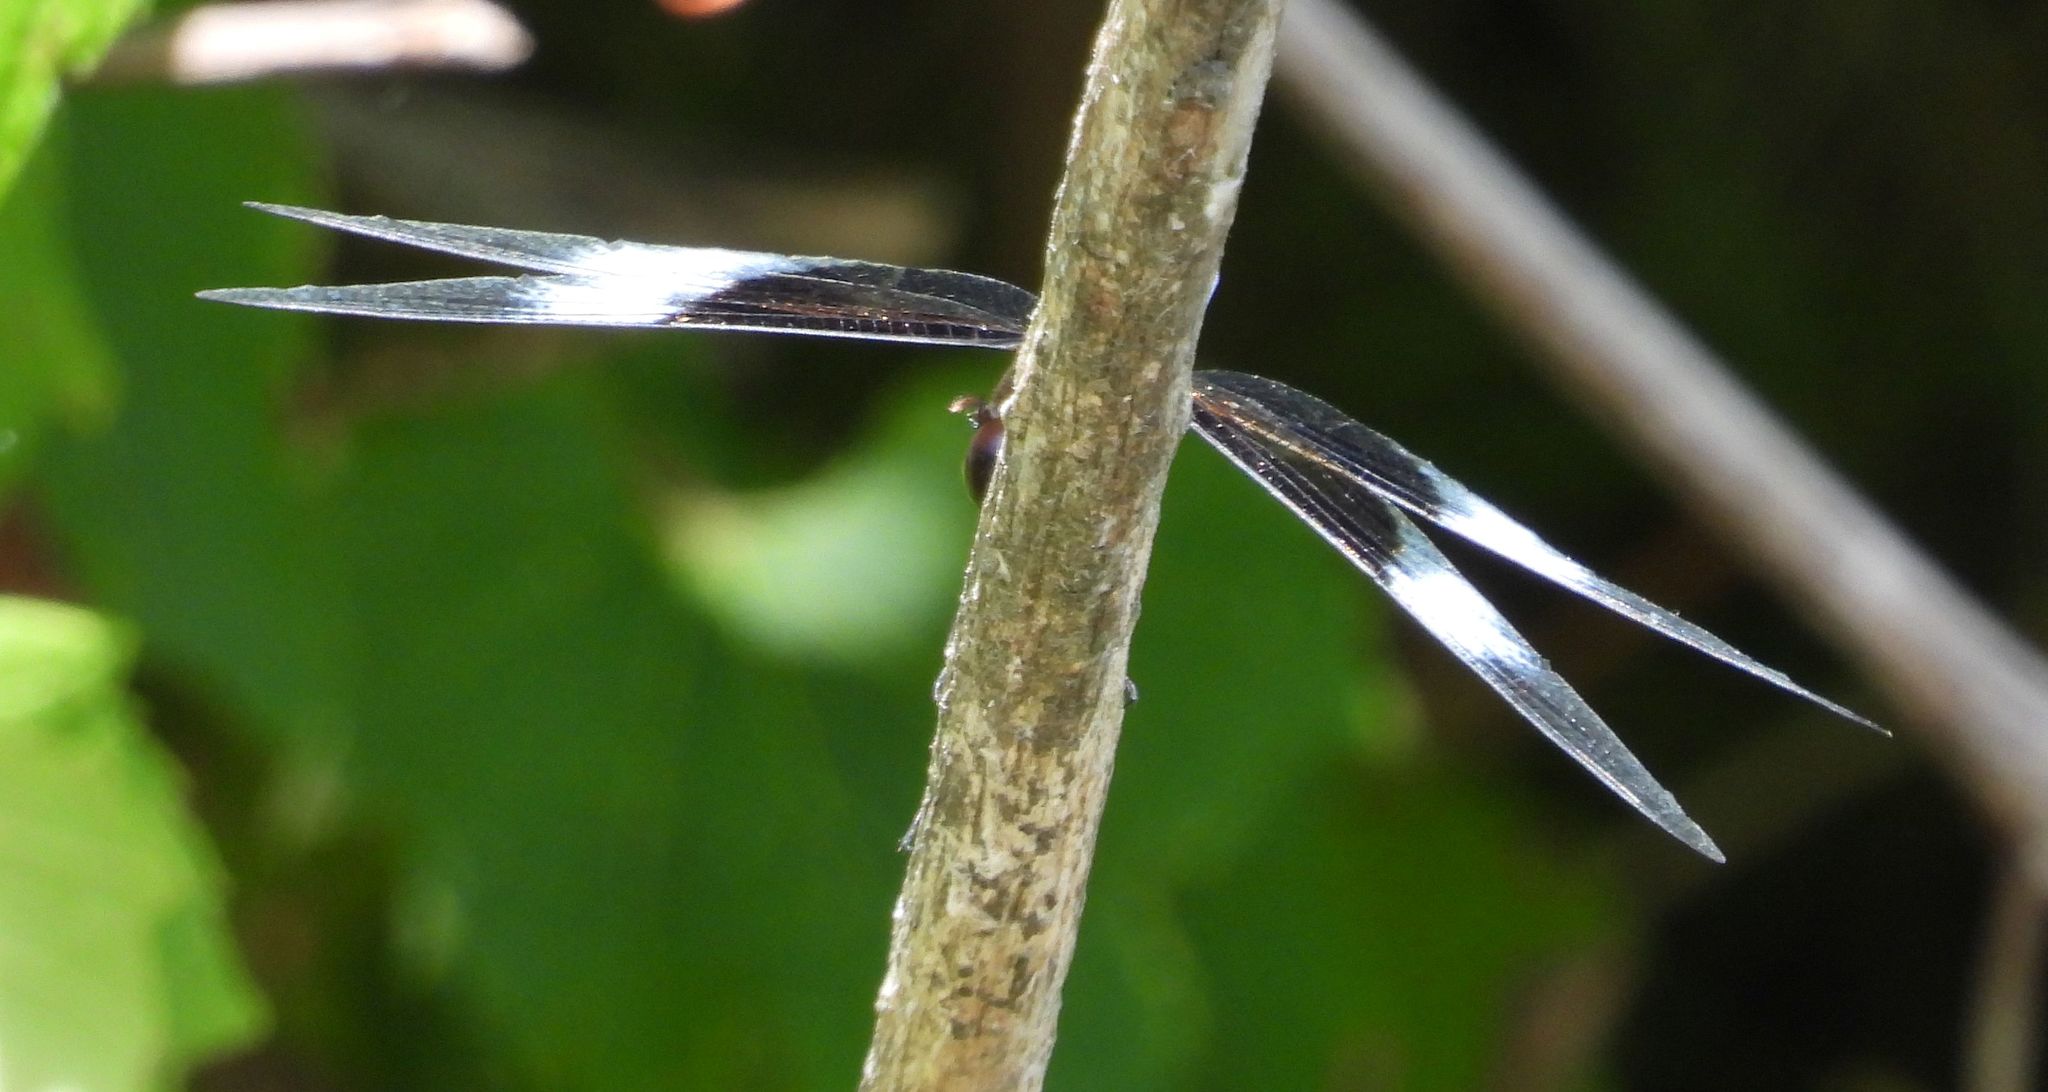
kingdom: Animalia
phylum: Arthropoda
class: Insecta
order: Odonata
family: Libellulidae
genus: Libellula
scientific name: Libellula luctuosa
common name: Widow skimmer
